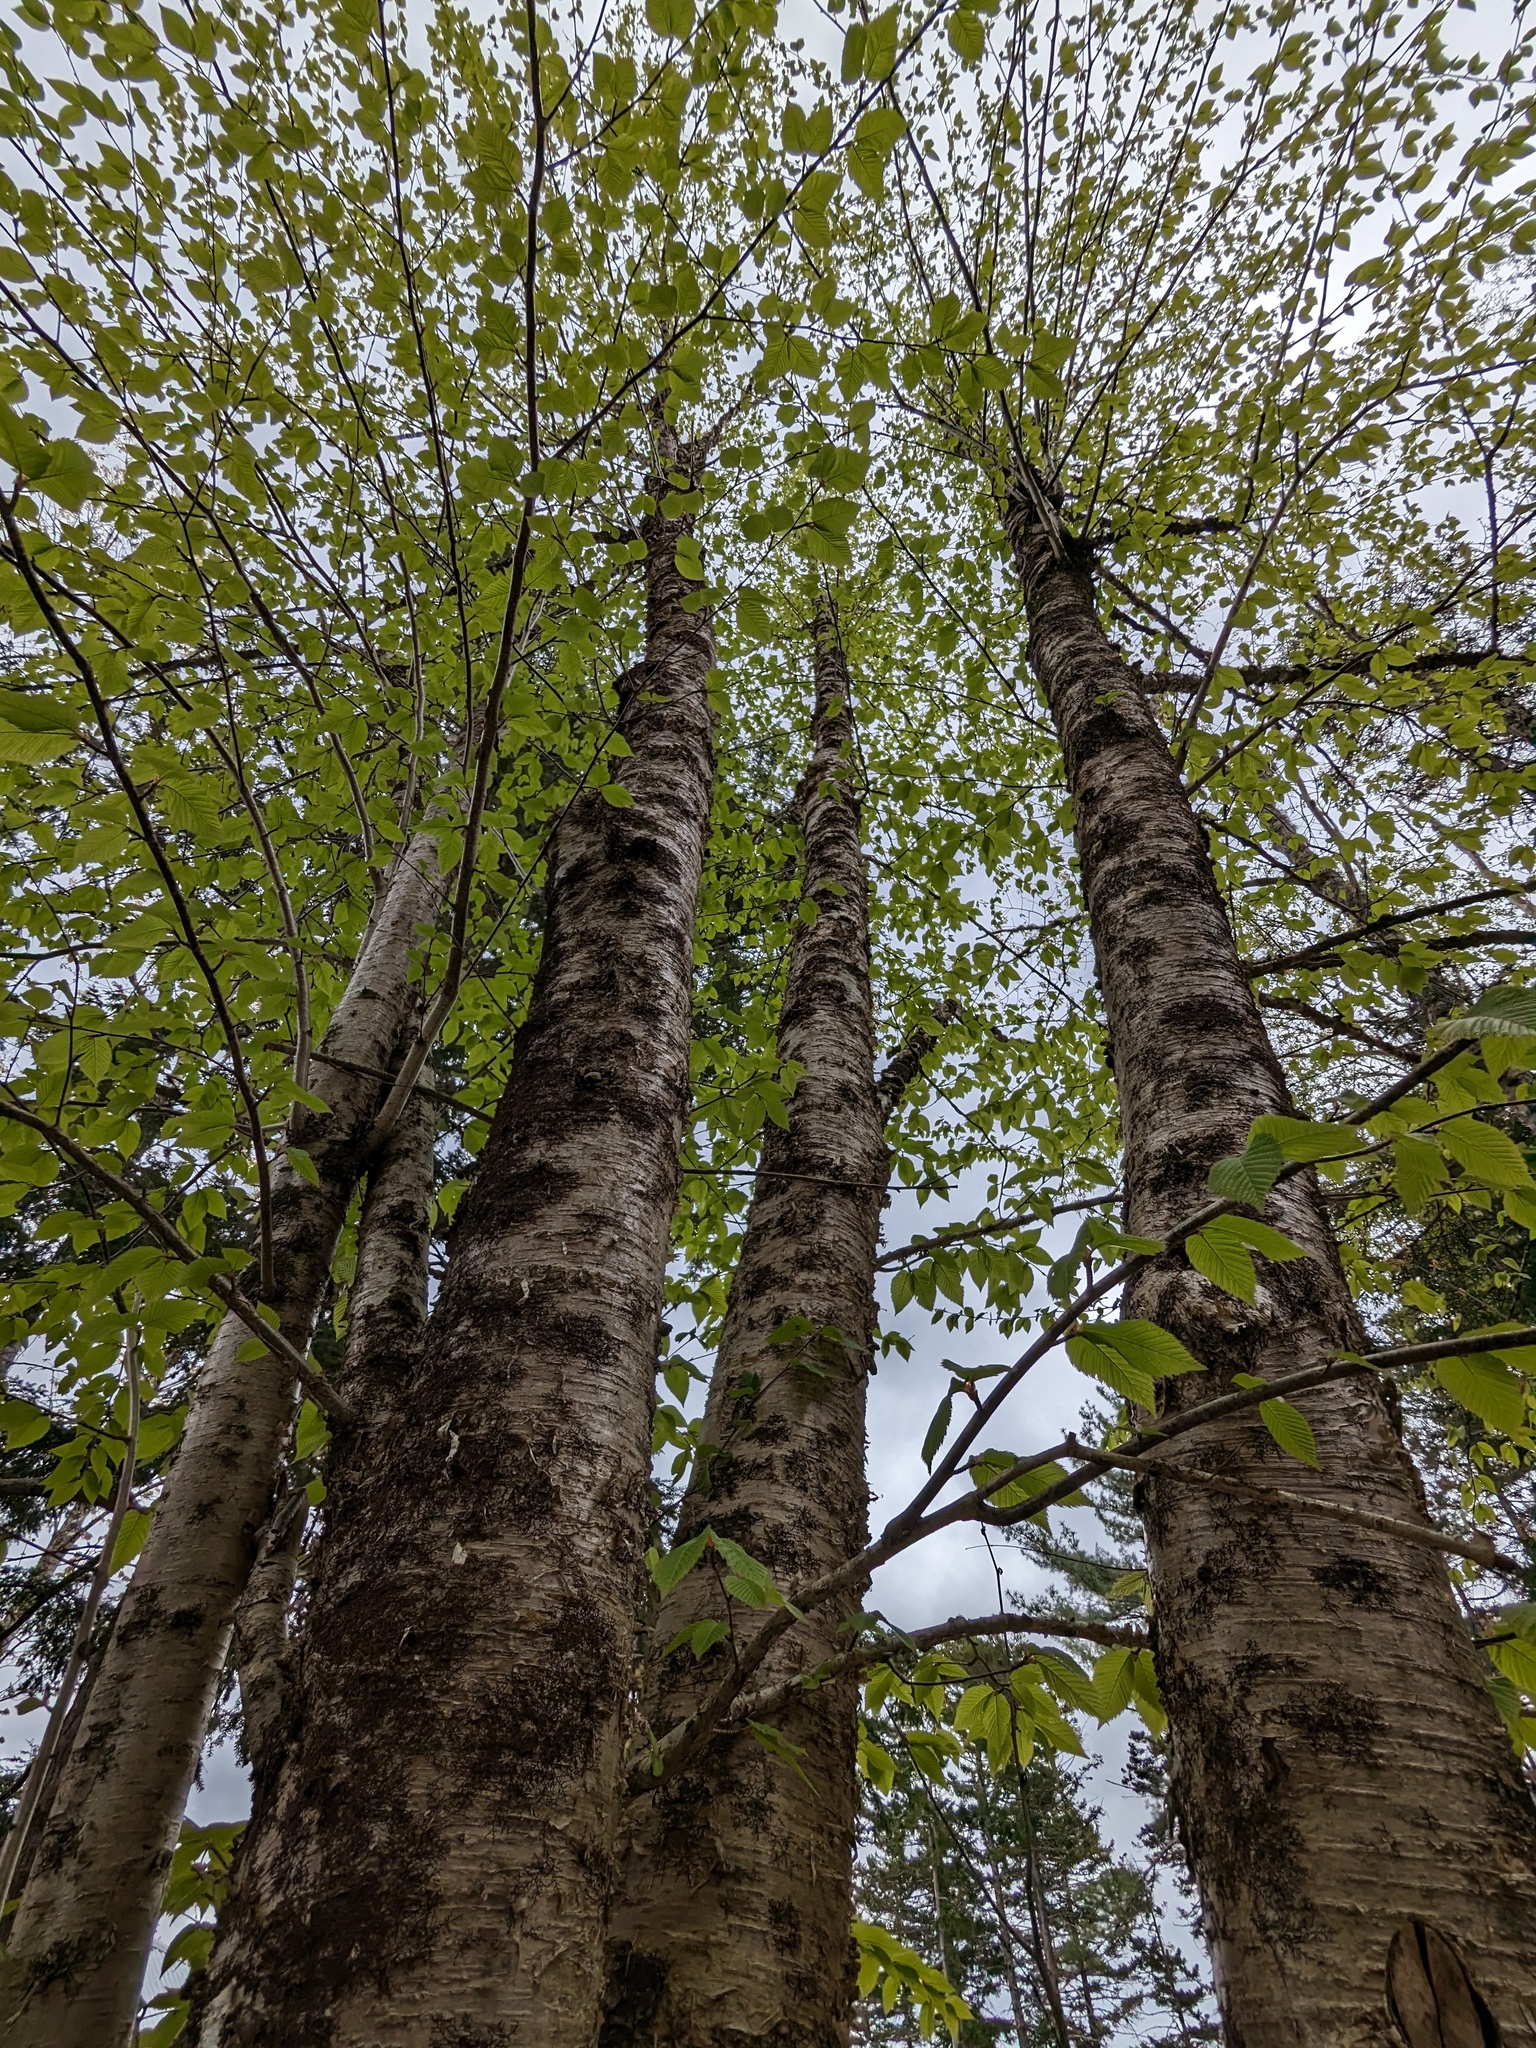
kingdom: Plantae
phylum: Tracheophyta
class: Magnoliopsida
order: Fagales
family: Betulaceae
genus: Betula
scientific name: Betula alleghaniensis
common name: Yellow birch
